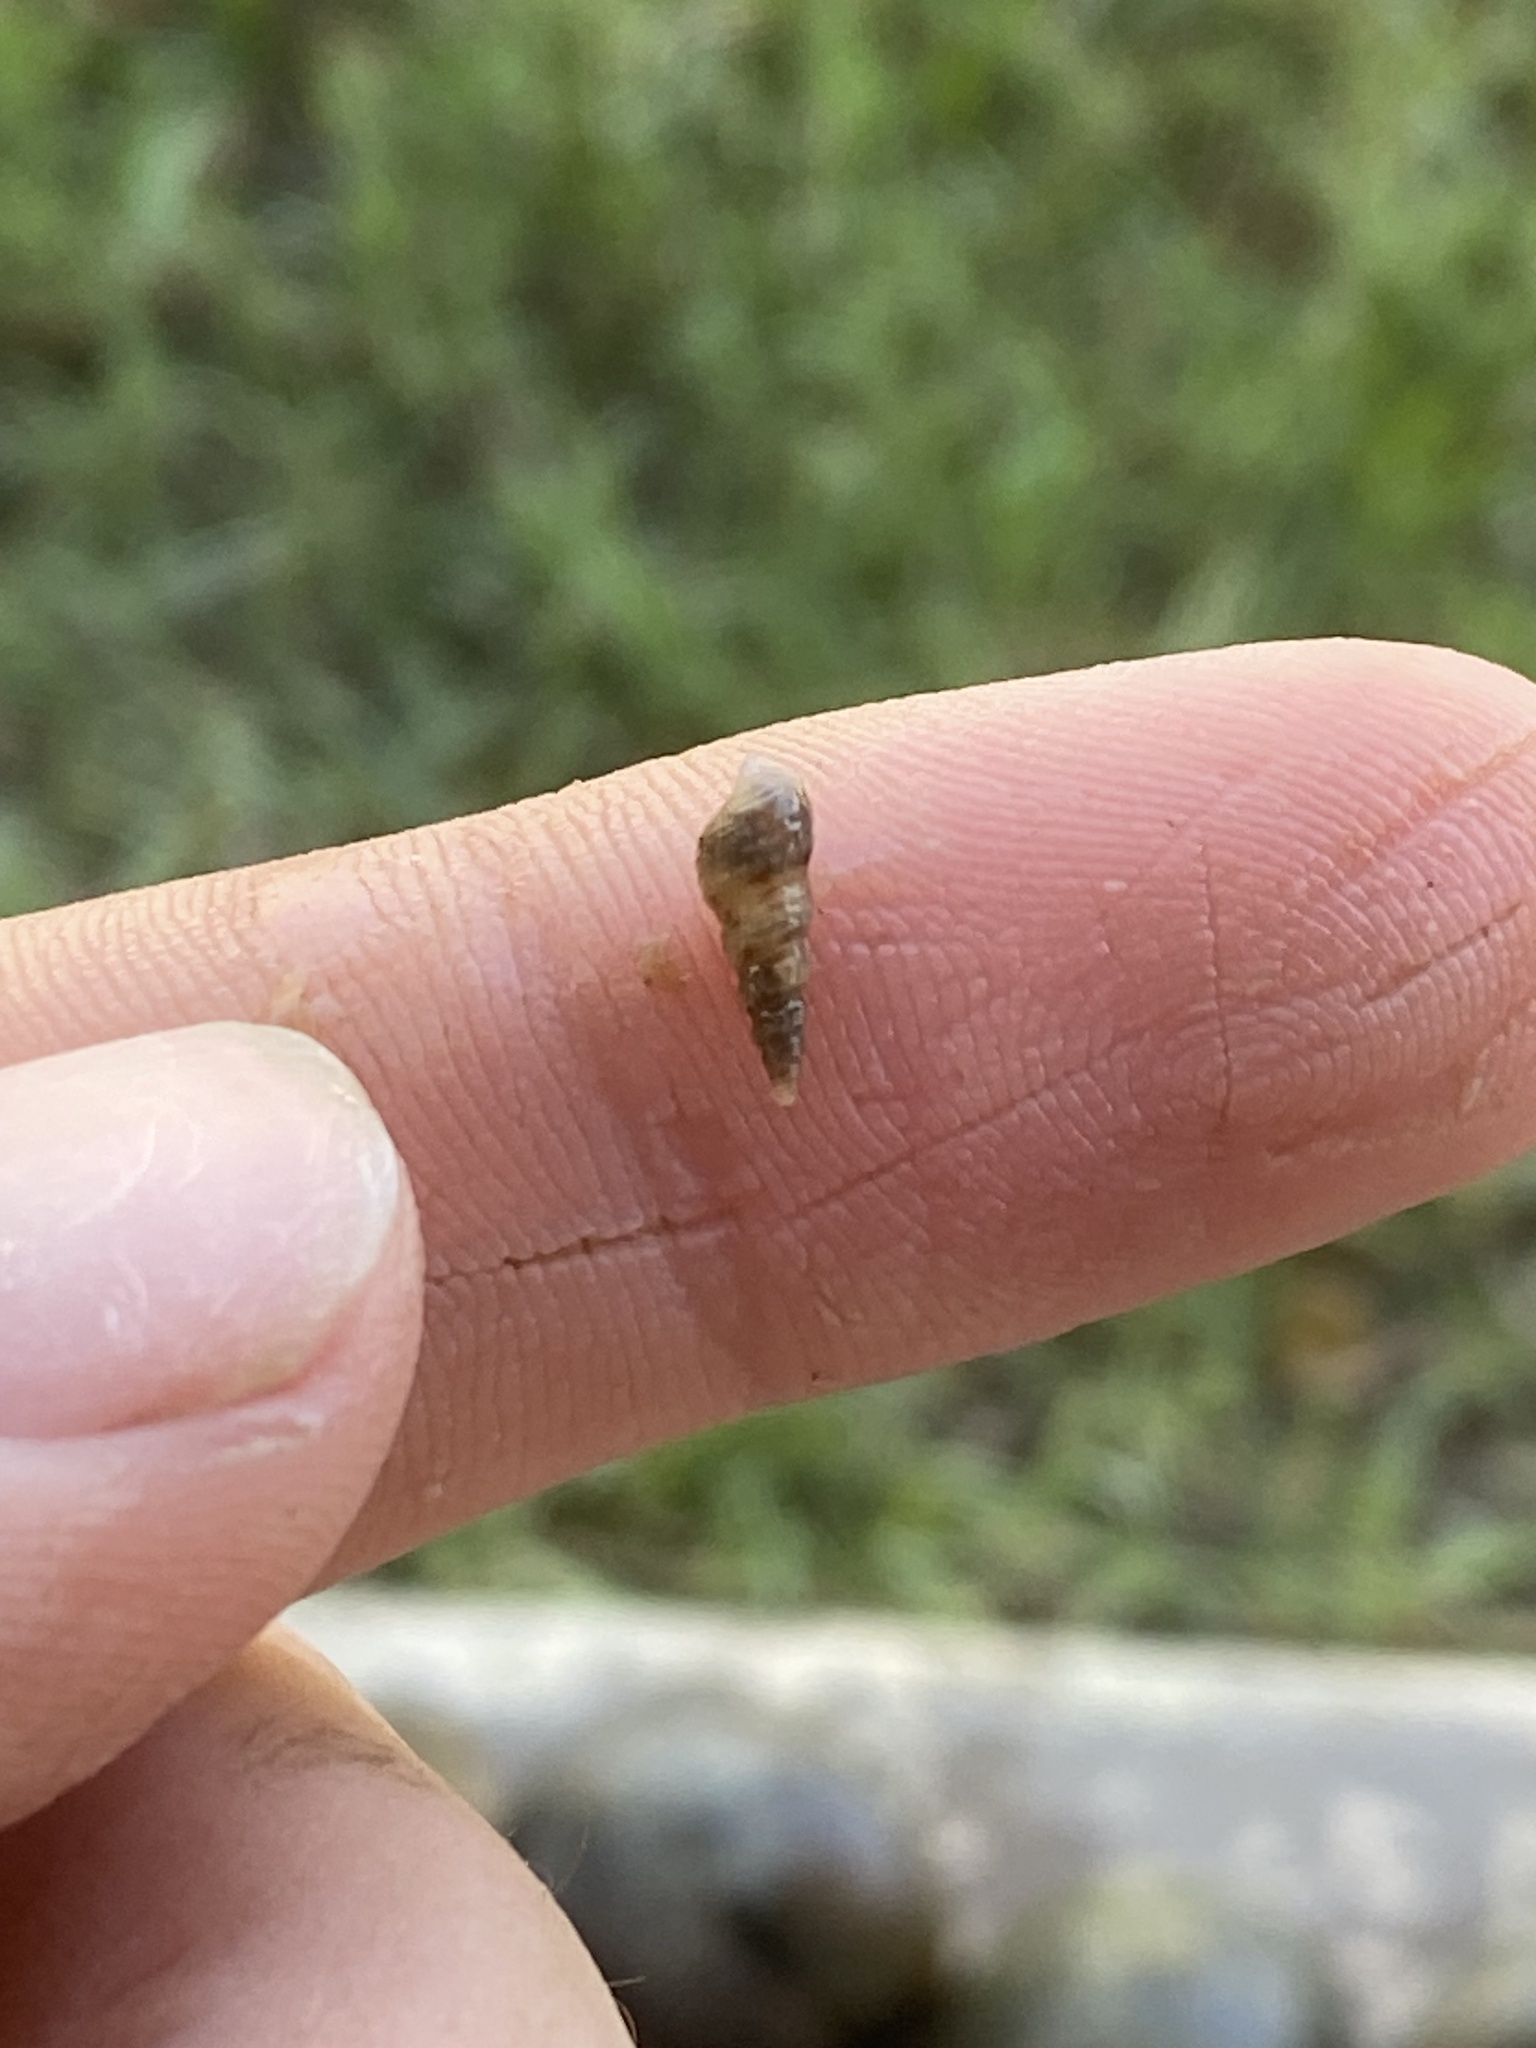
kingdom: Animalia
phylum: Mollusca
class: Gastropoda
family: Thiaridae
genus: Melanoides
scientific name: Melanoides tuberculata
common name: Red-rim melania
